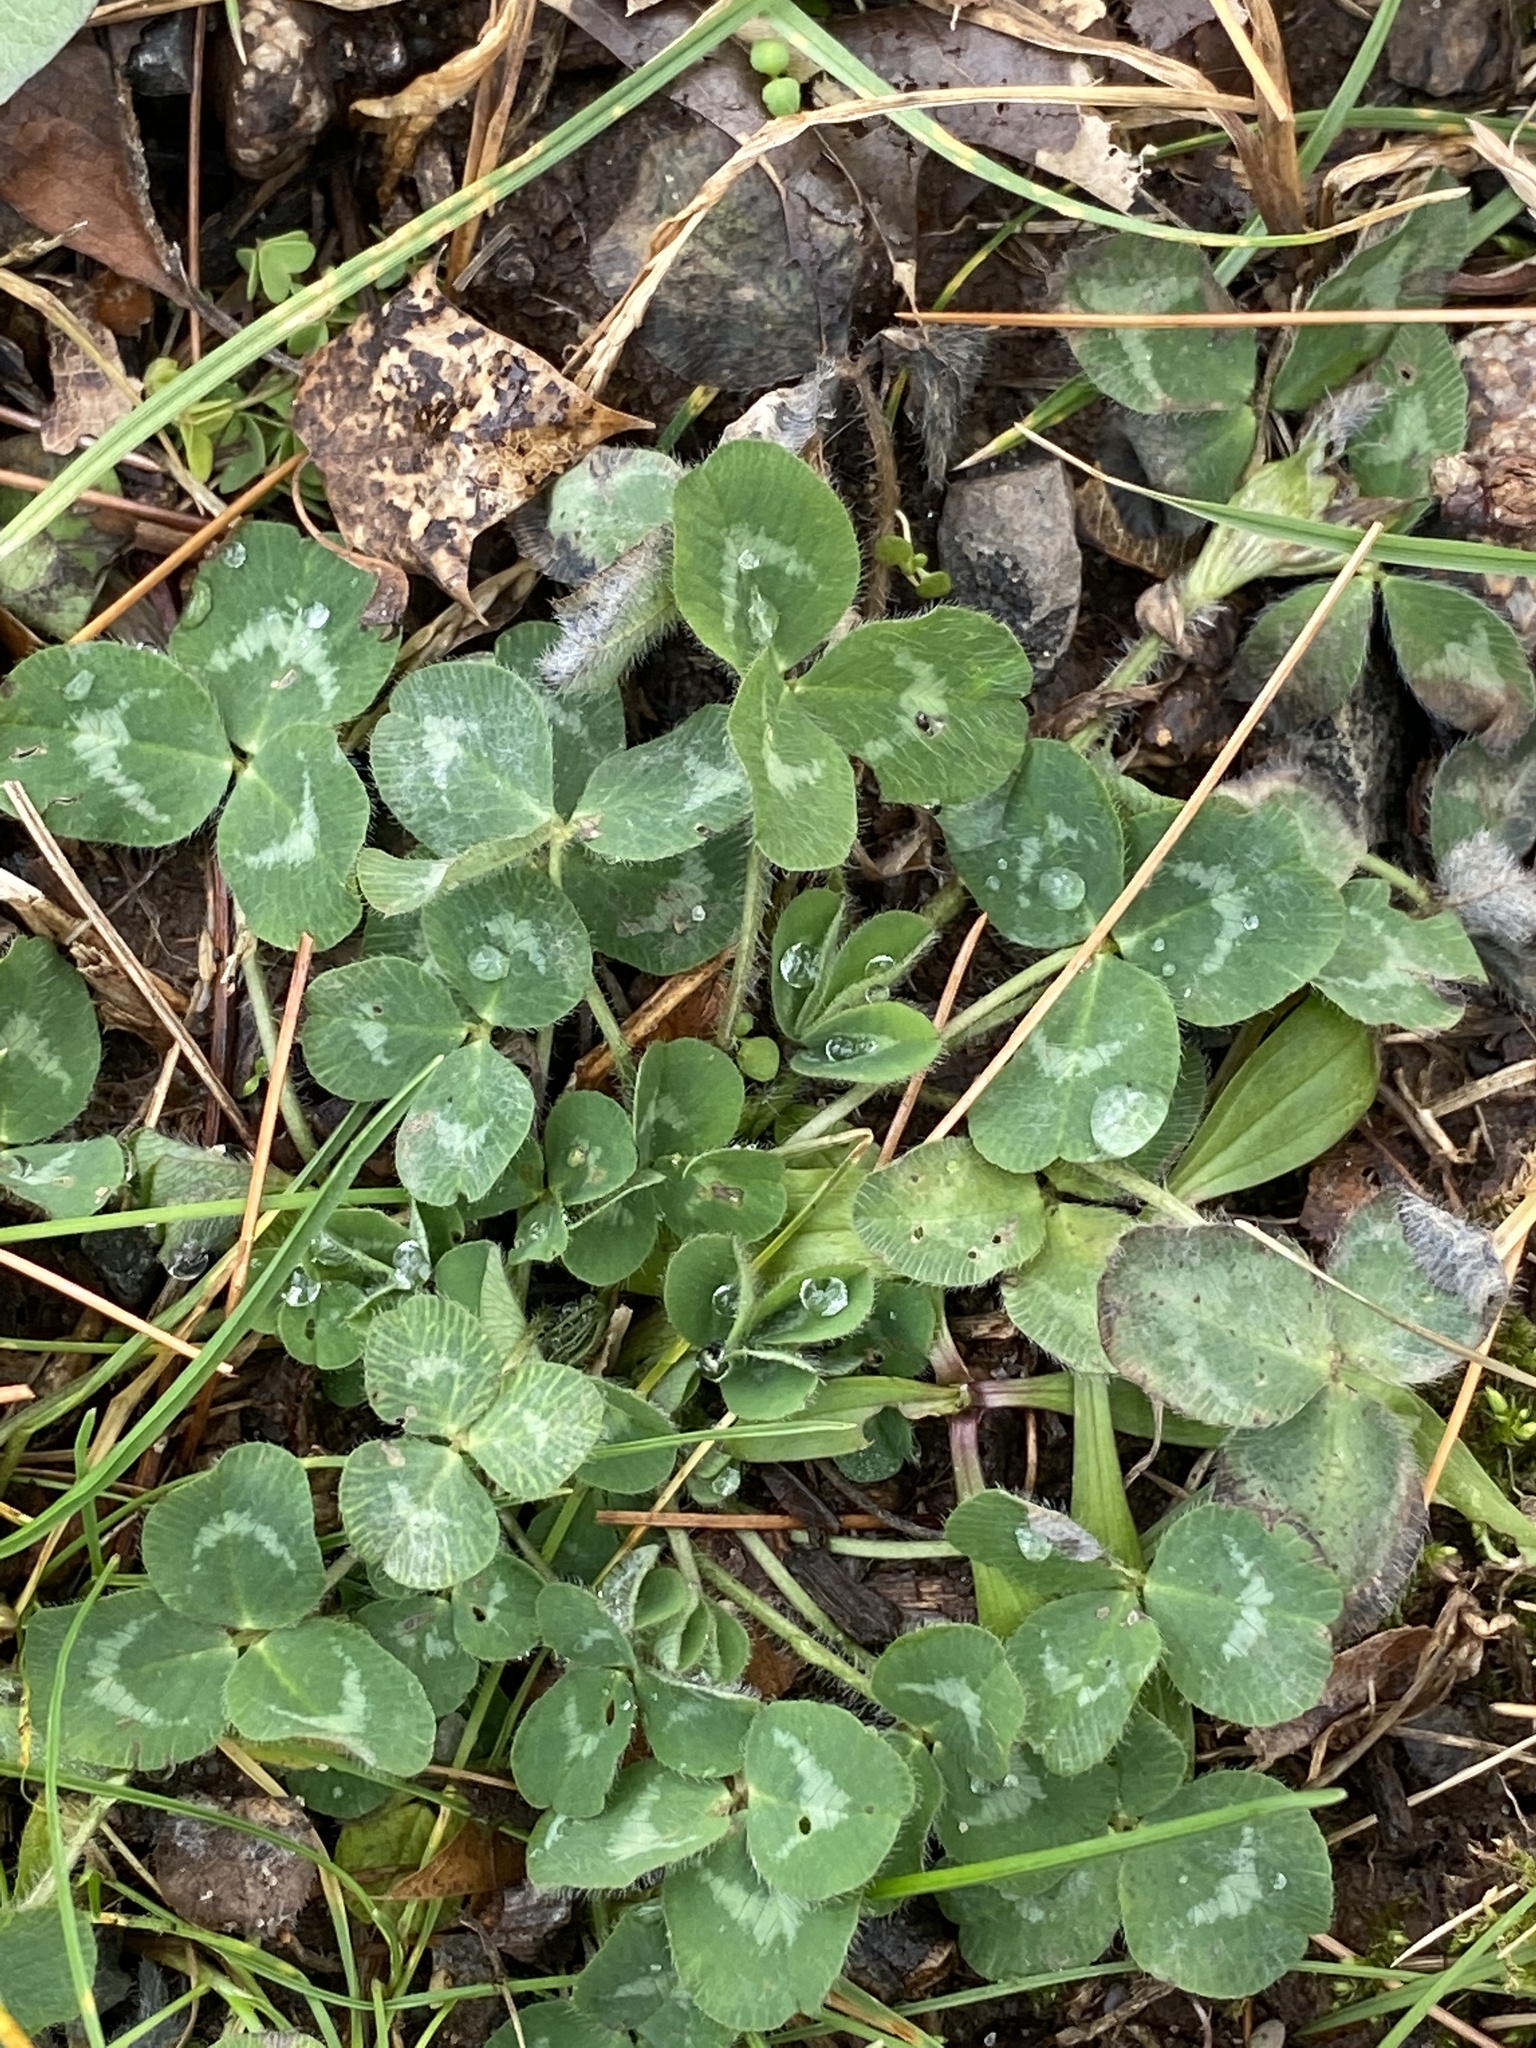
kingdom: Plantae
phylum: Tracheophyta
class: Magnoliopsida
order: Fabales
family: Fabaceae
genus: Trifolium
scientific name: Trifolium pratense
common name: Red clover
